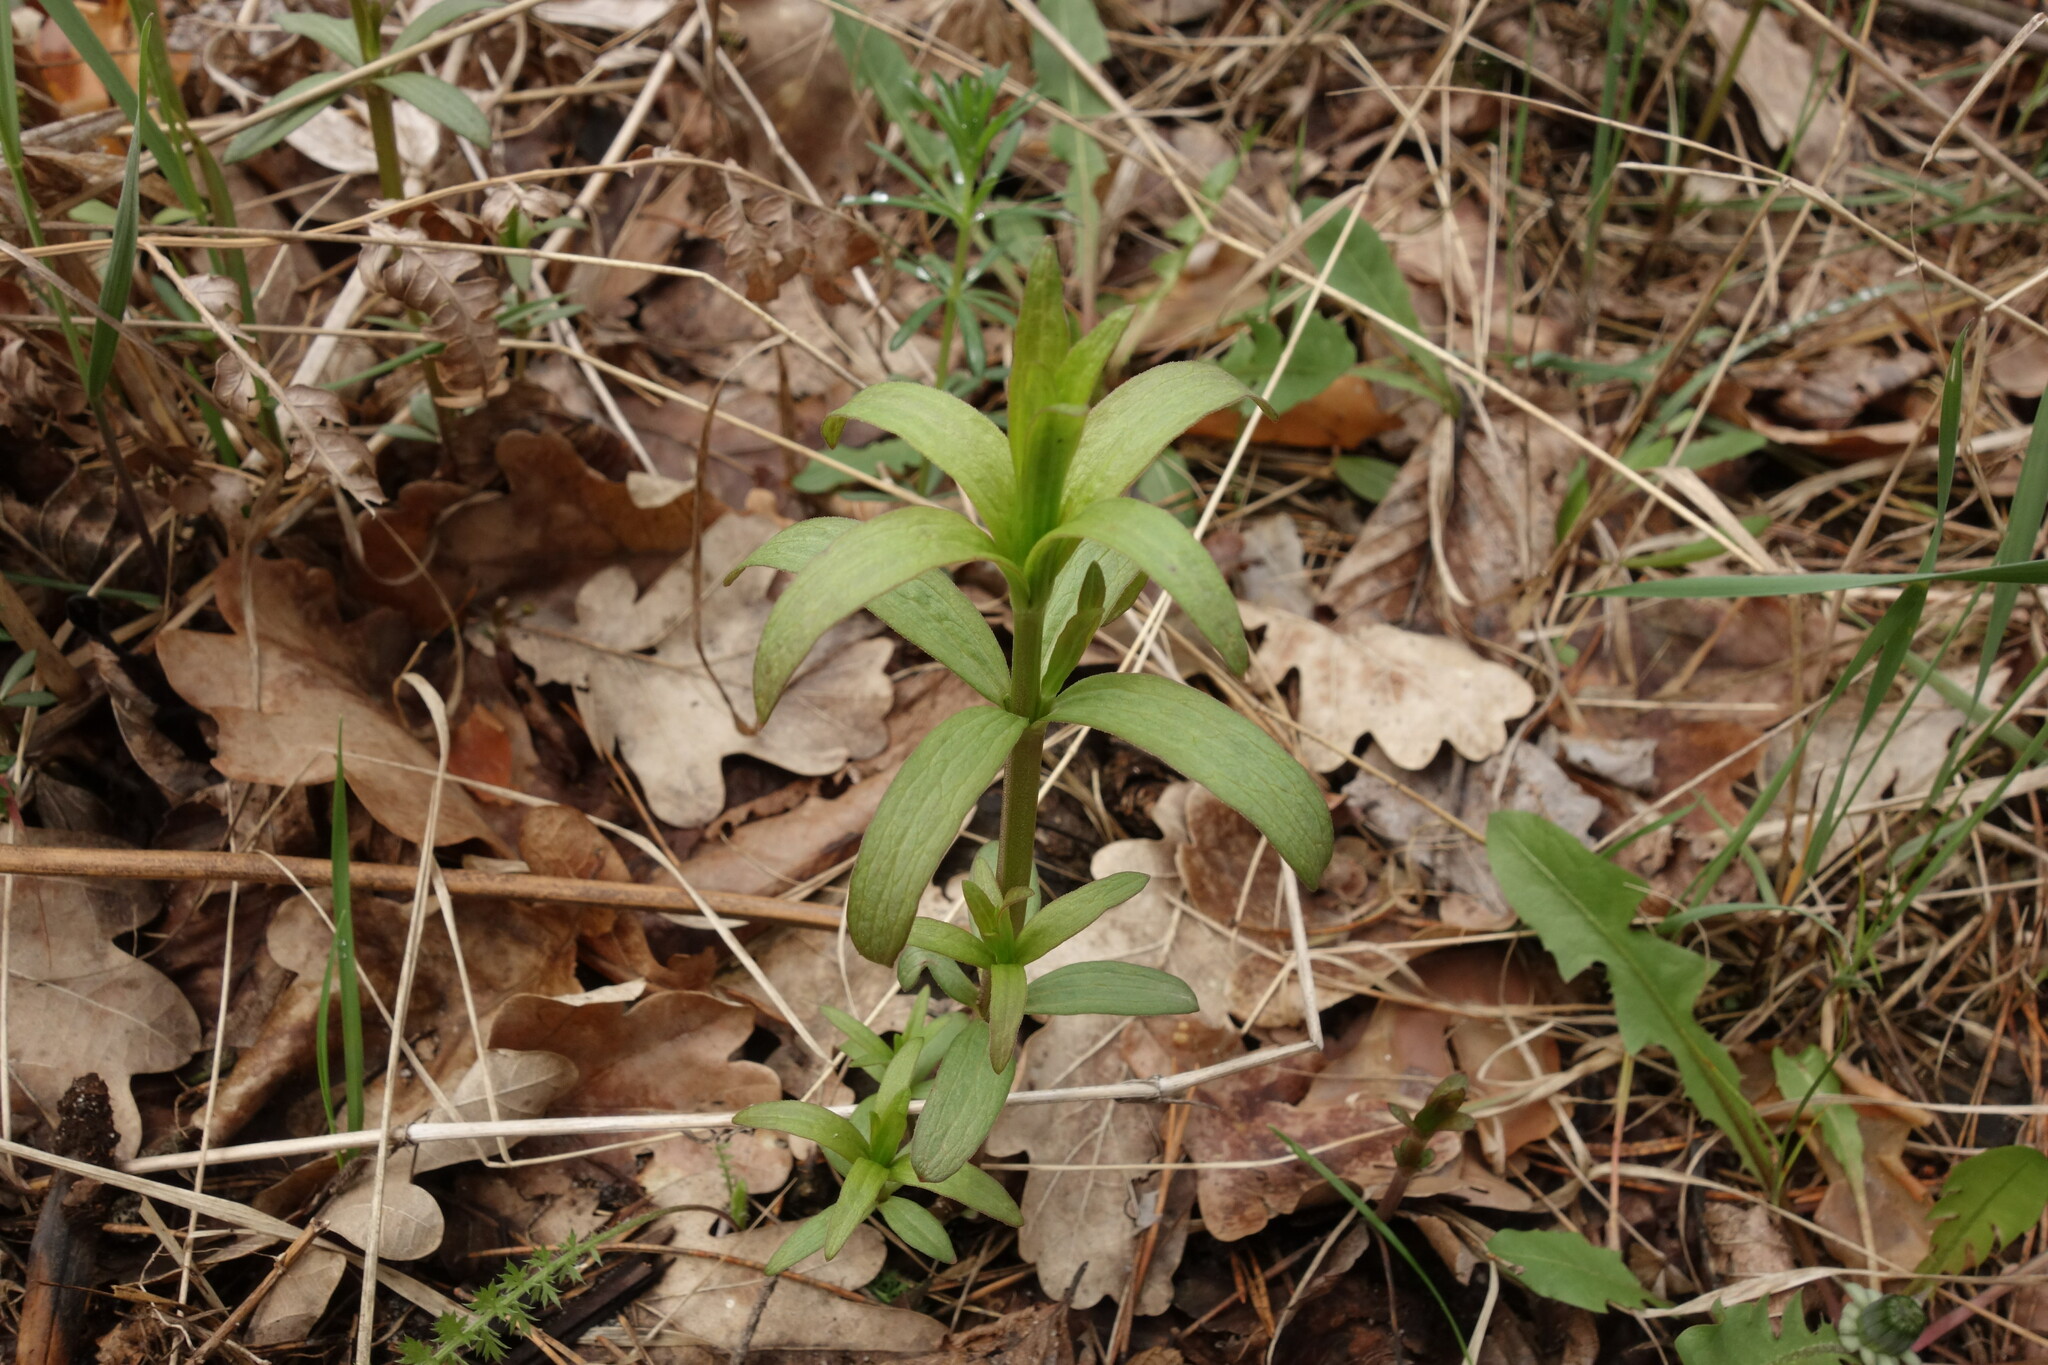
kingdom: Plantae
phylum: Tracheophyta
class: Magnoliopsida
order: Gentianales
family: Rubiaceae
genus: Galium
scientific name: Galium rubioides
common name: European bedstraw
